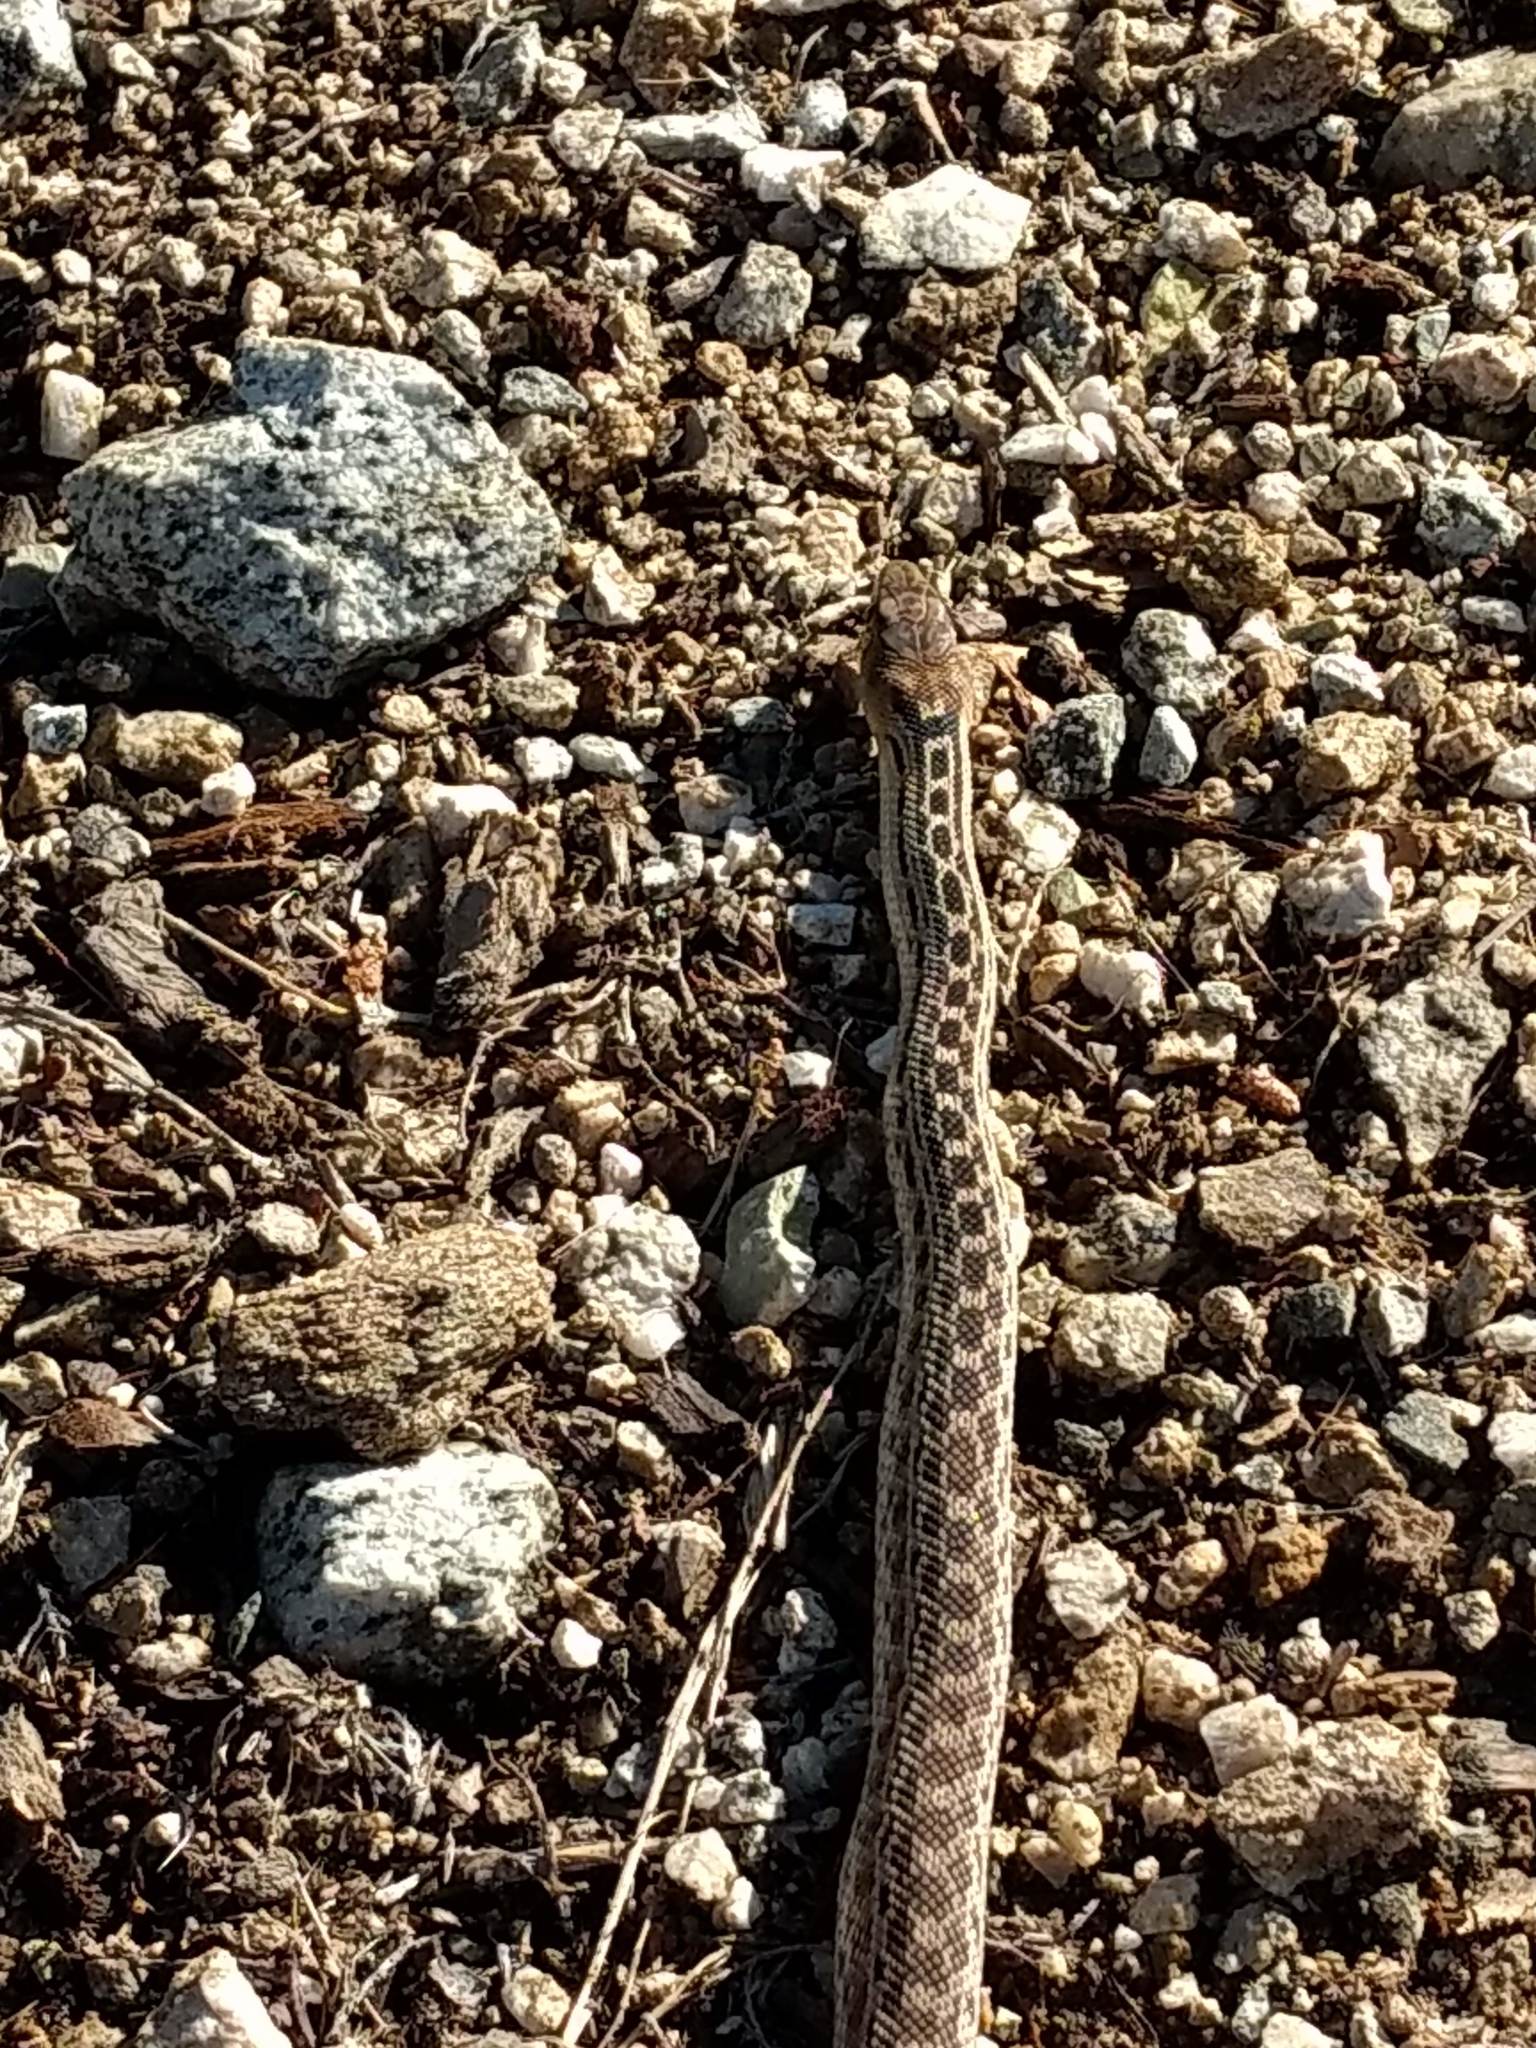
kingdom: Animalia
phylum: Chordata
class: Squamata
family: Colubridae
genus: Pituophis
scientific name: Pituophis catenifer
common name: Gopher snake
